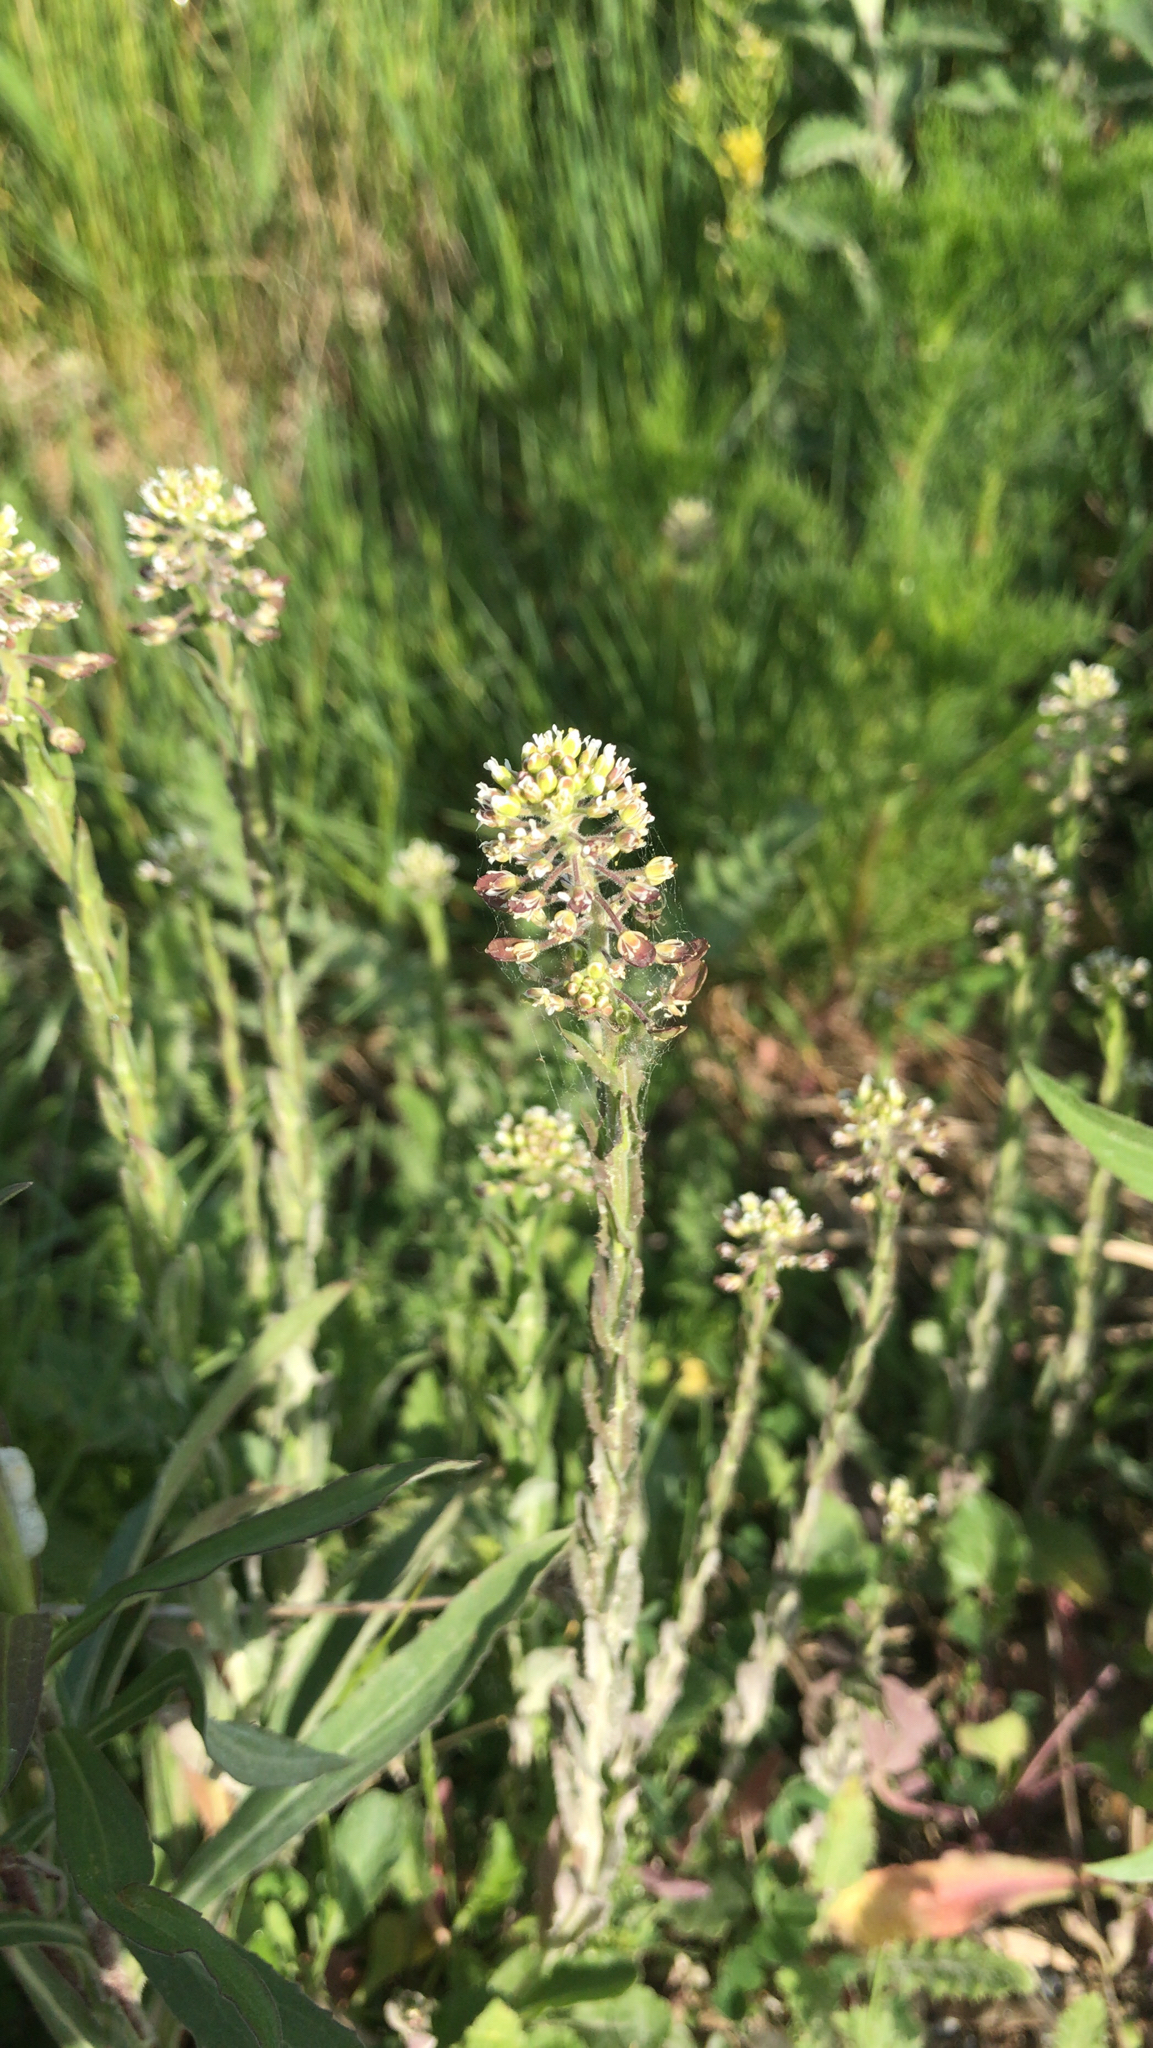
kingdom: Plantae
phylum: Tracheophyta
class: Magnoliopsida
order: Brassicales
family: Brassicaceae
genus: Lepidium
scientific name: Lepidium campestre
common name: Field pepperwort
